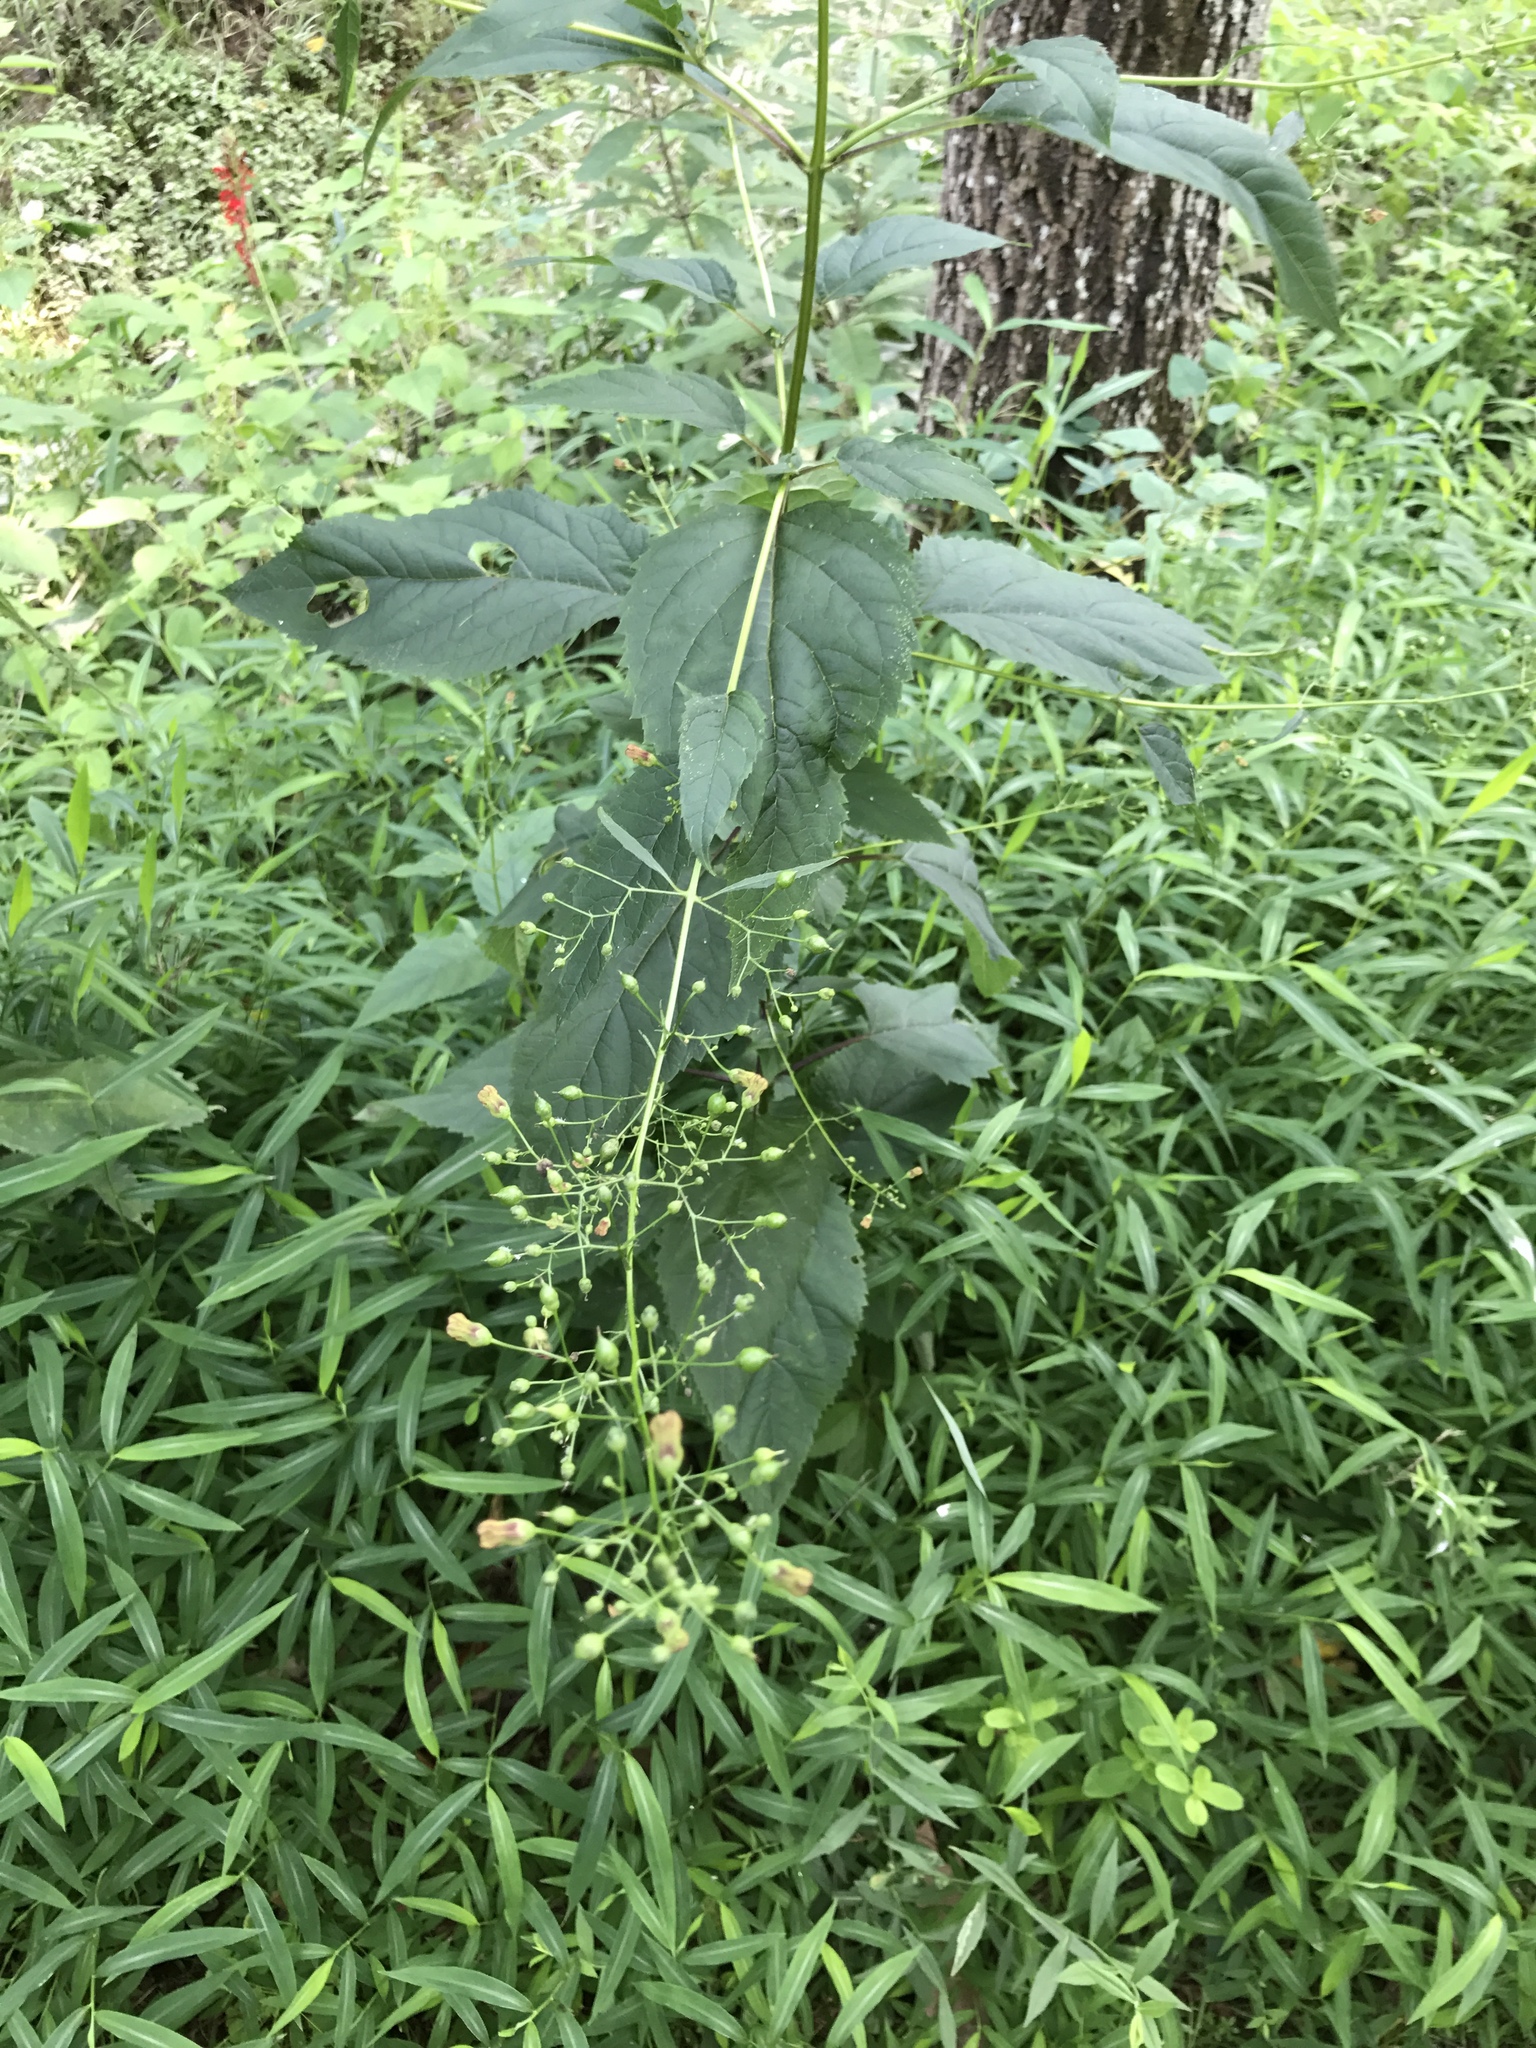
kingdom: Plantae
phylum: Tracheophyta
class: Magnoliopsida
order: Lamiales
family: Scrophulariaceae
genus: Scrophularia
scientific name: Scrophularia marilandica
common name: Eastern figwort
